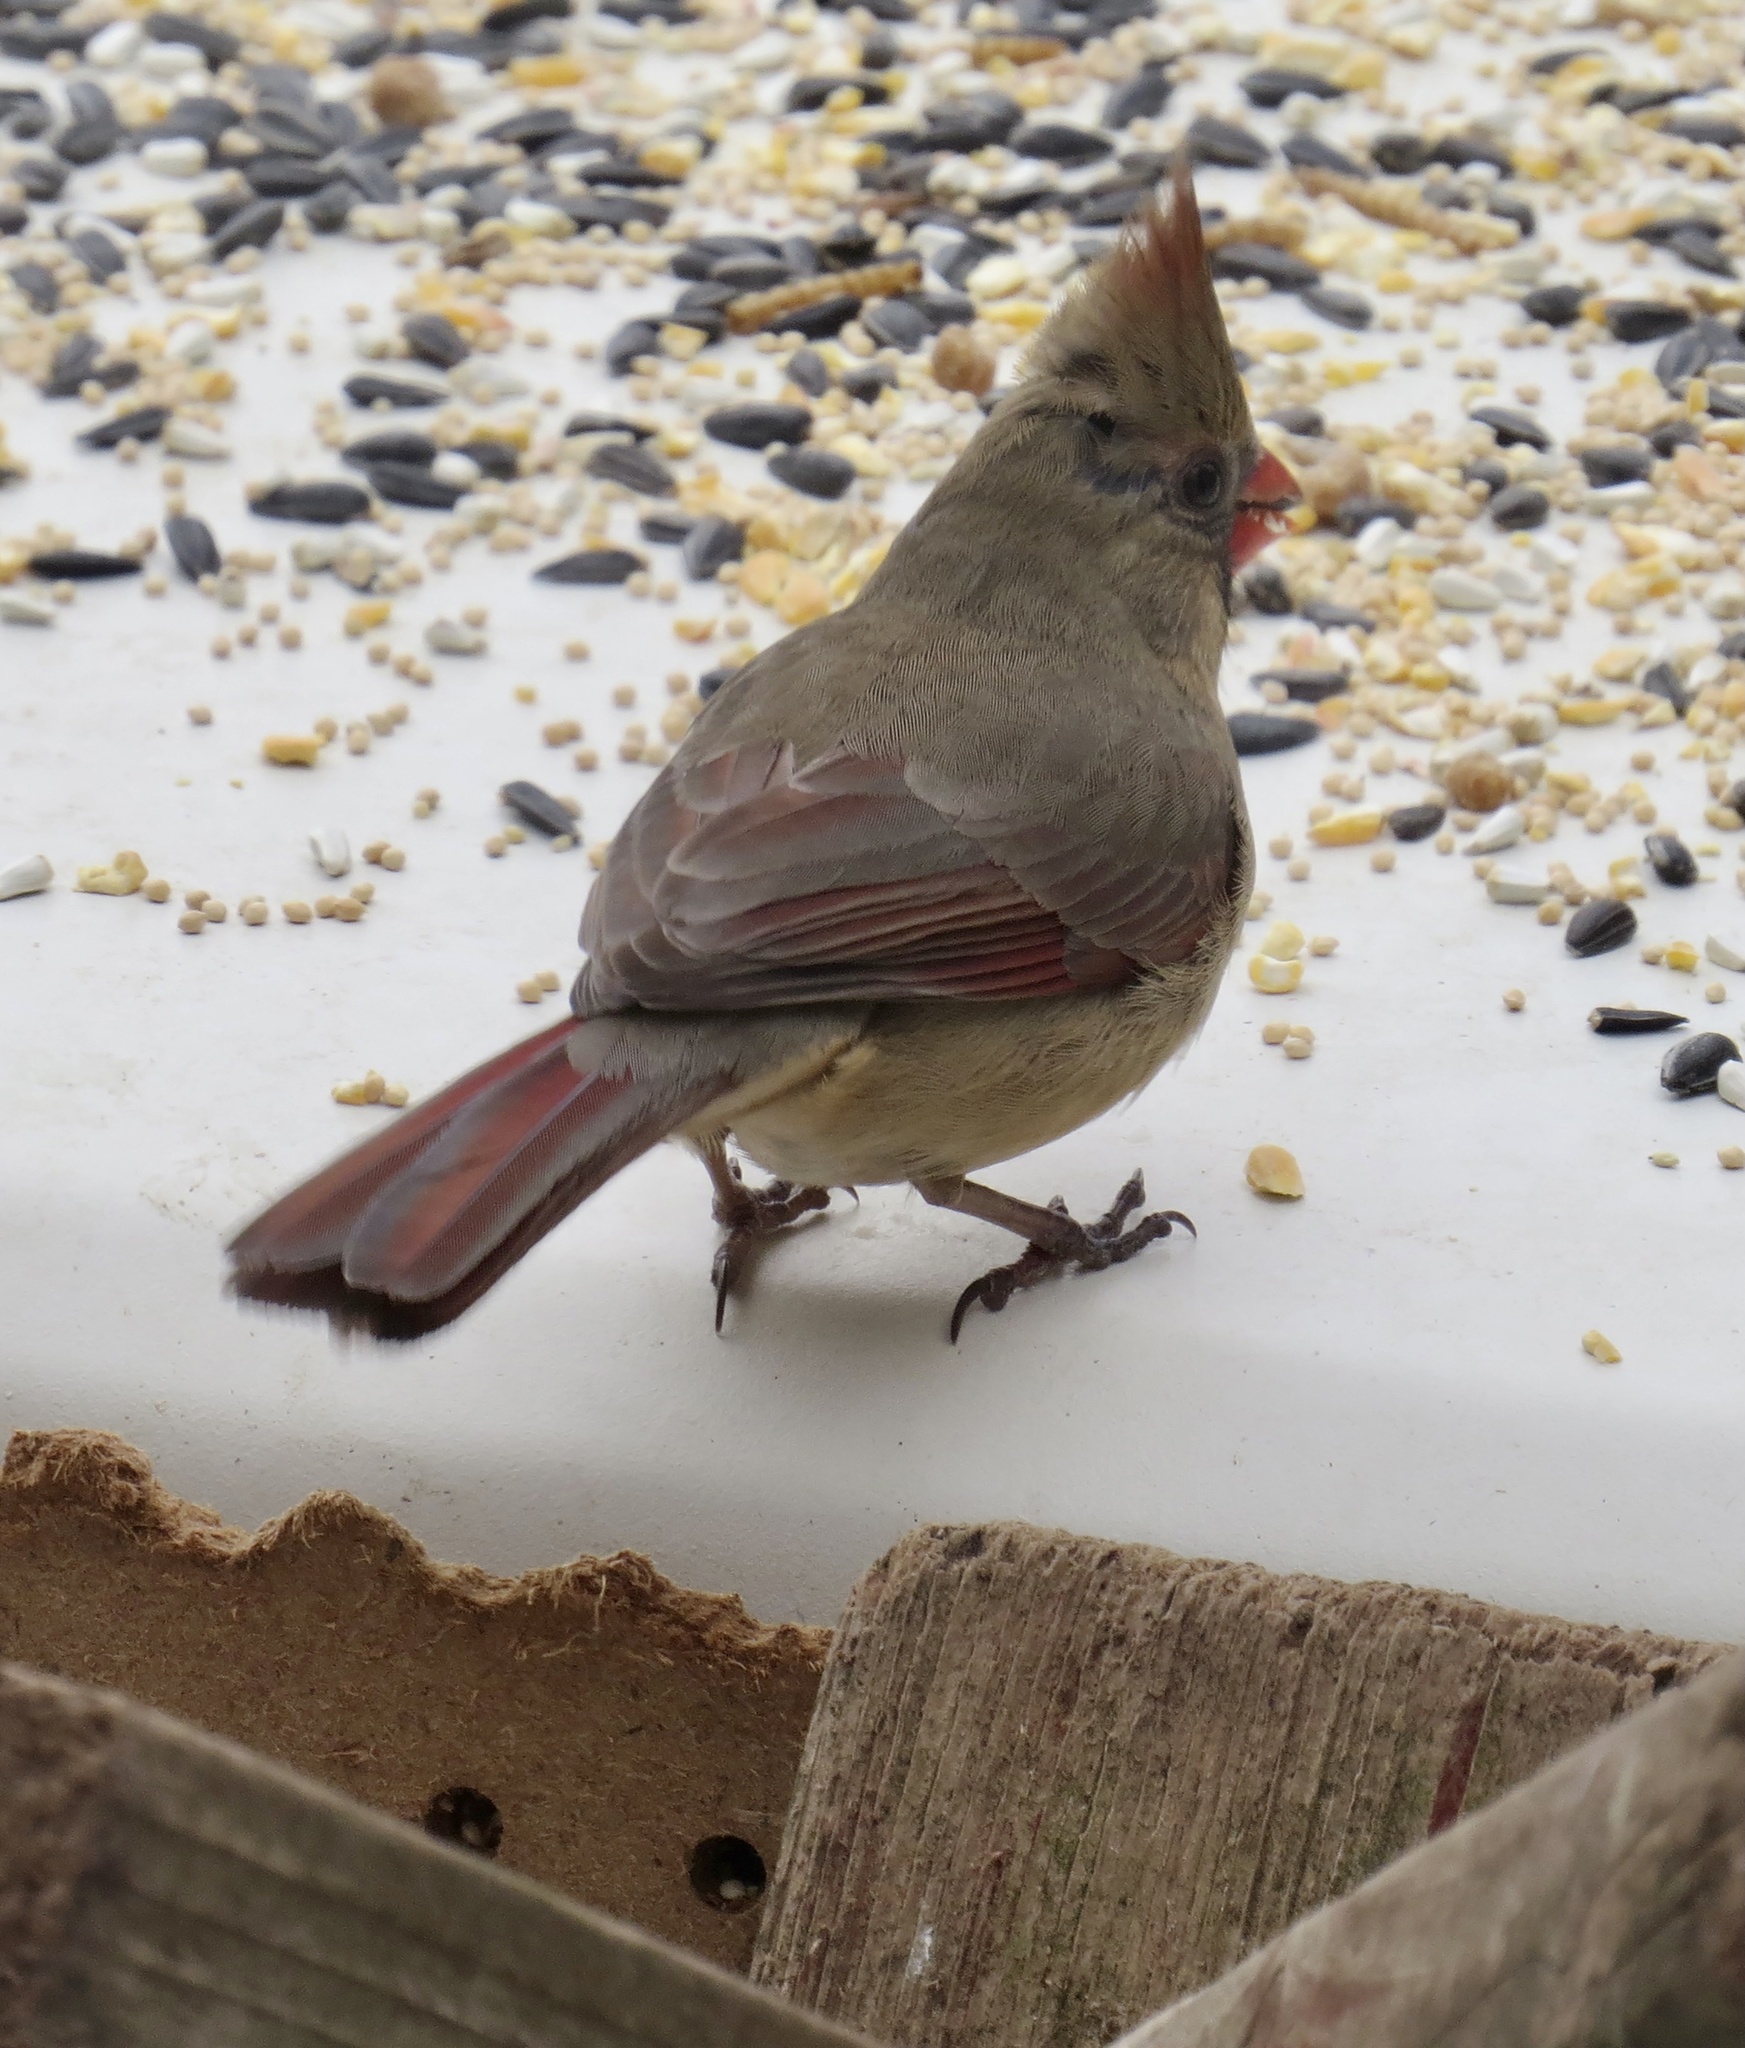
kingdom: Animalia
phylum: Chordata
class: Aves
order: Passeriformes
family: Cardinalidae
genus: Cardinalis
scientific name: Cardinalis cardinalis
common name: Northern cardinal
